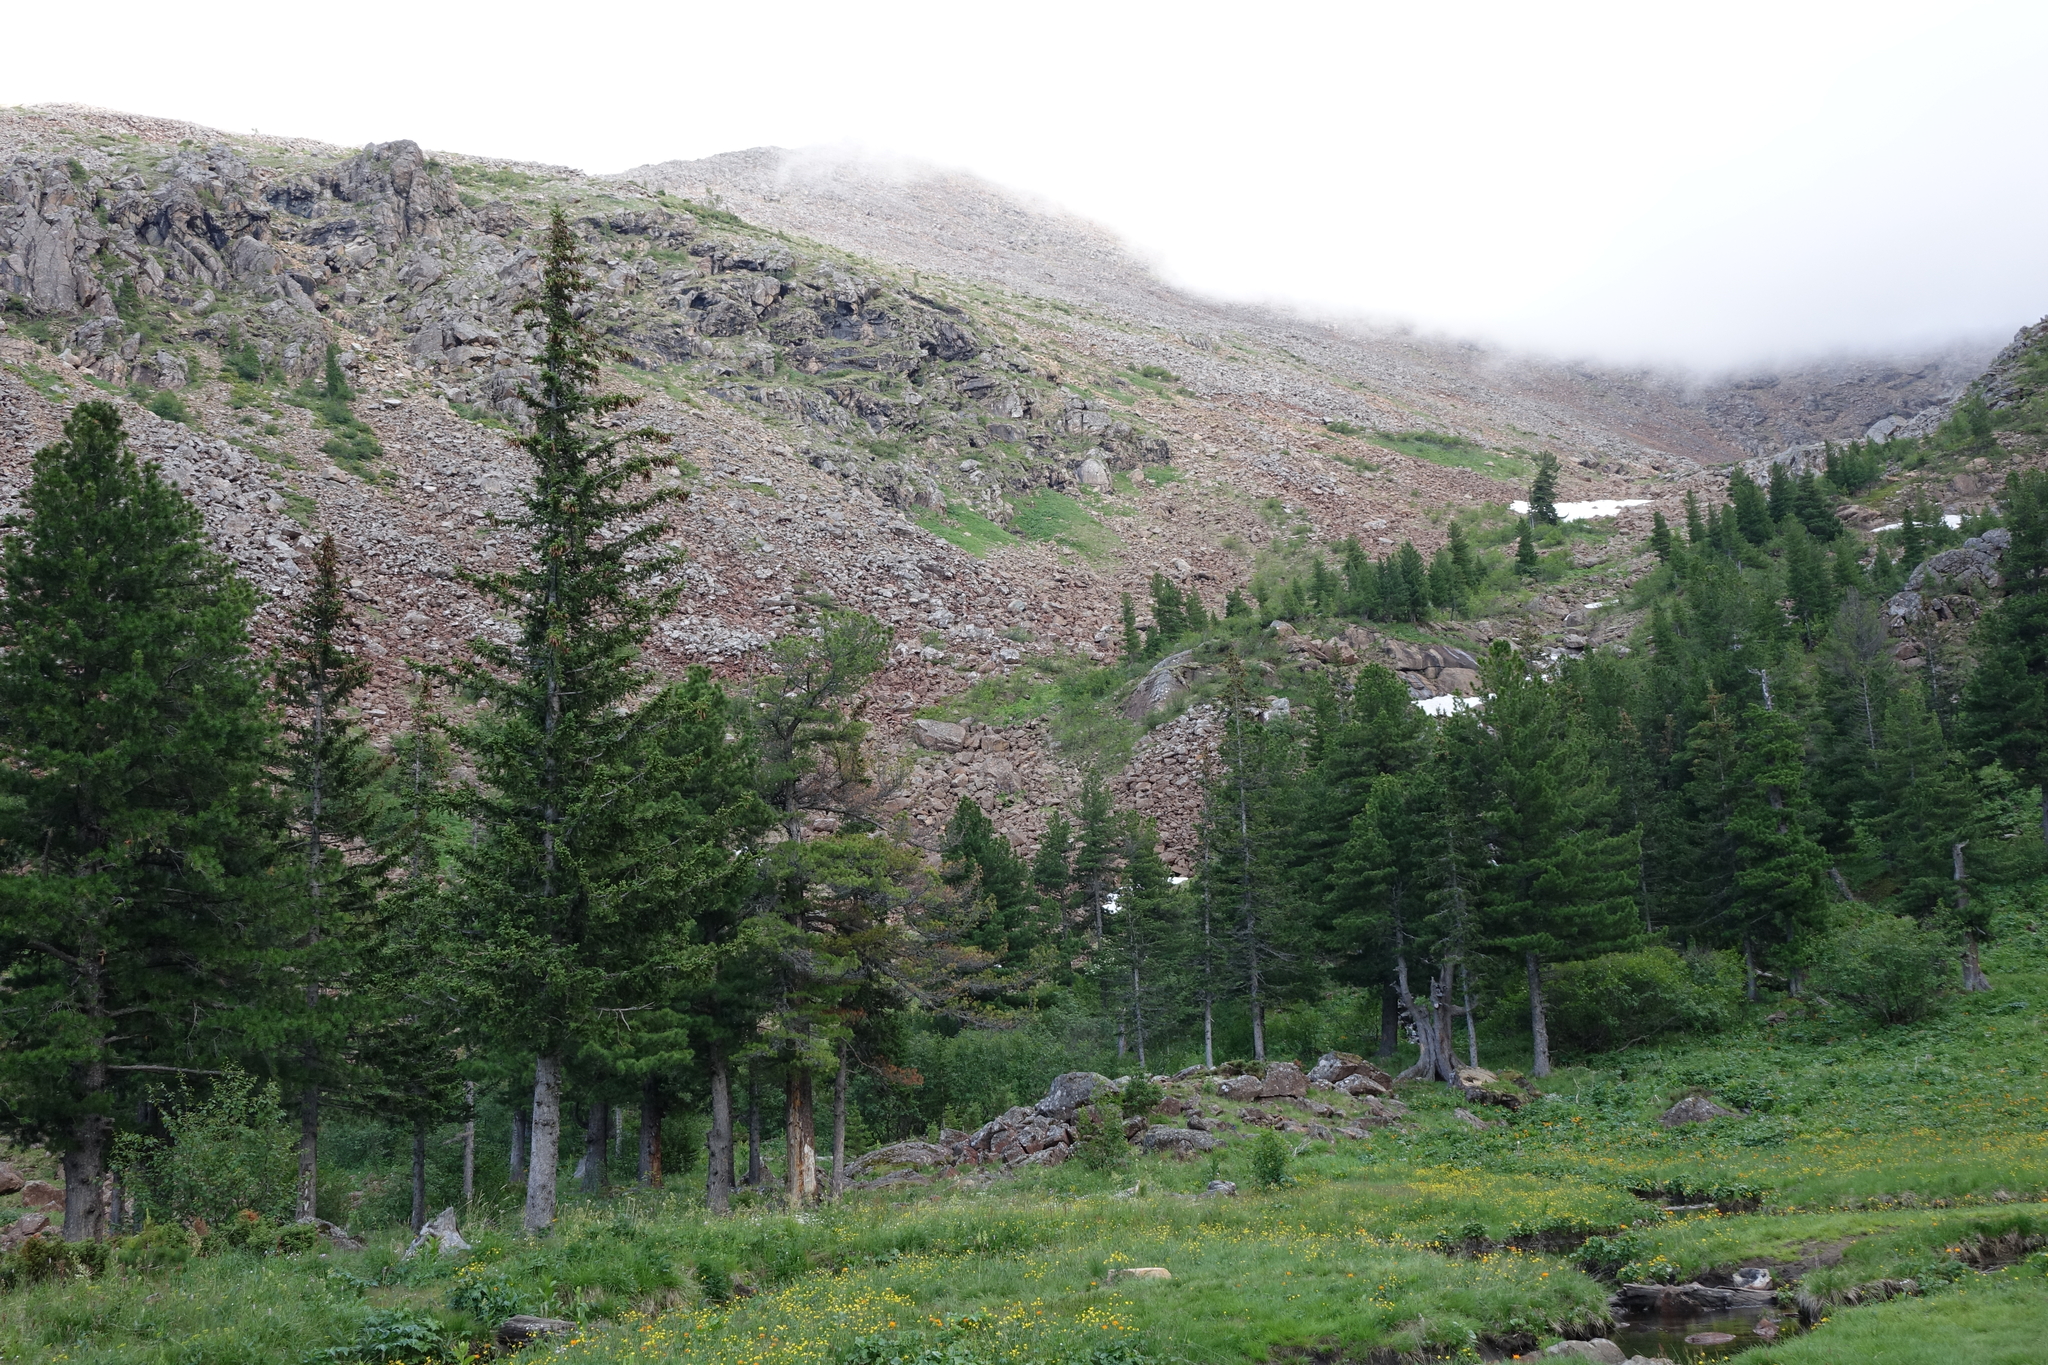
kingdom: Plantae
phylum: Tracheophyta
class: Pinopsida
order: Pinales
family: Pinaceae
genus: Picea
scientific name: Picea obovata
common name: Siberian spruce
